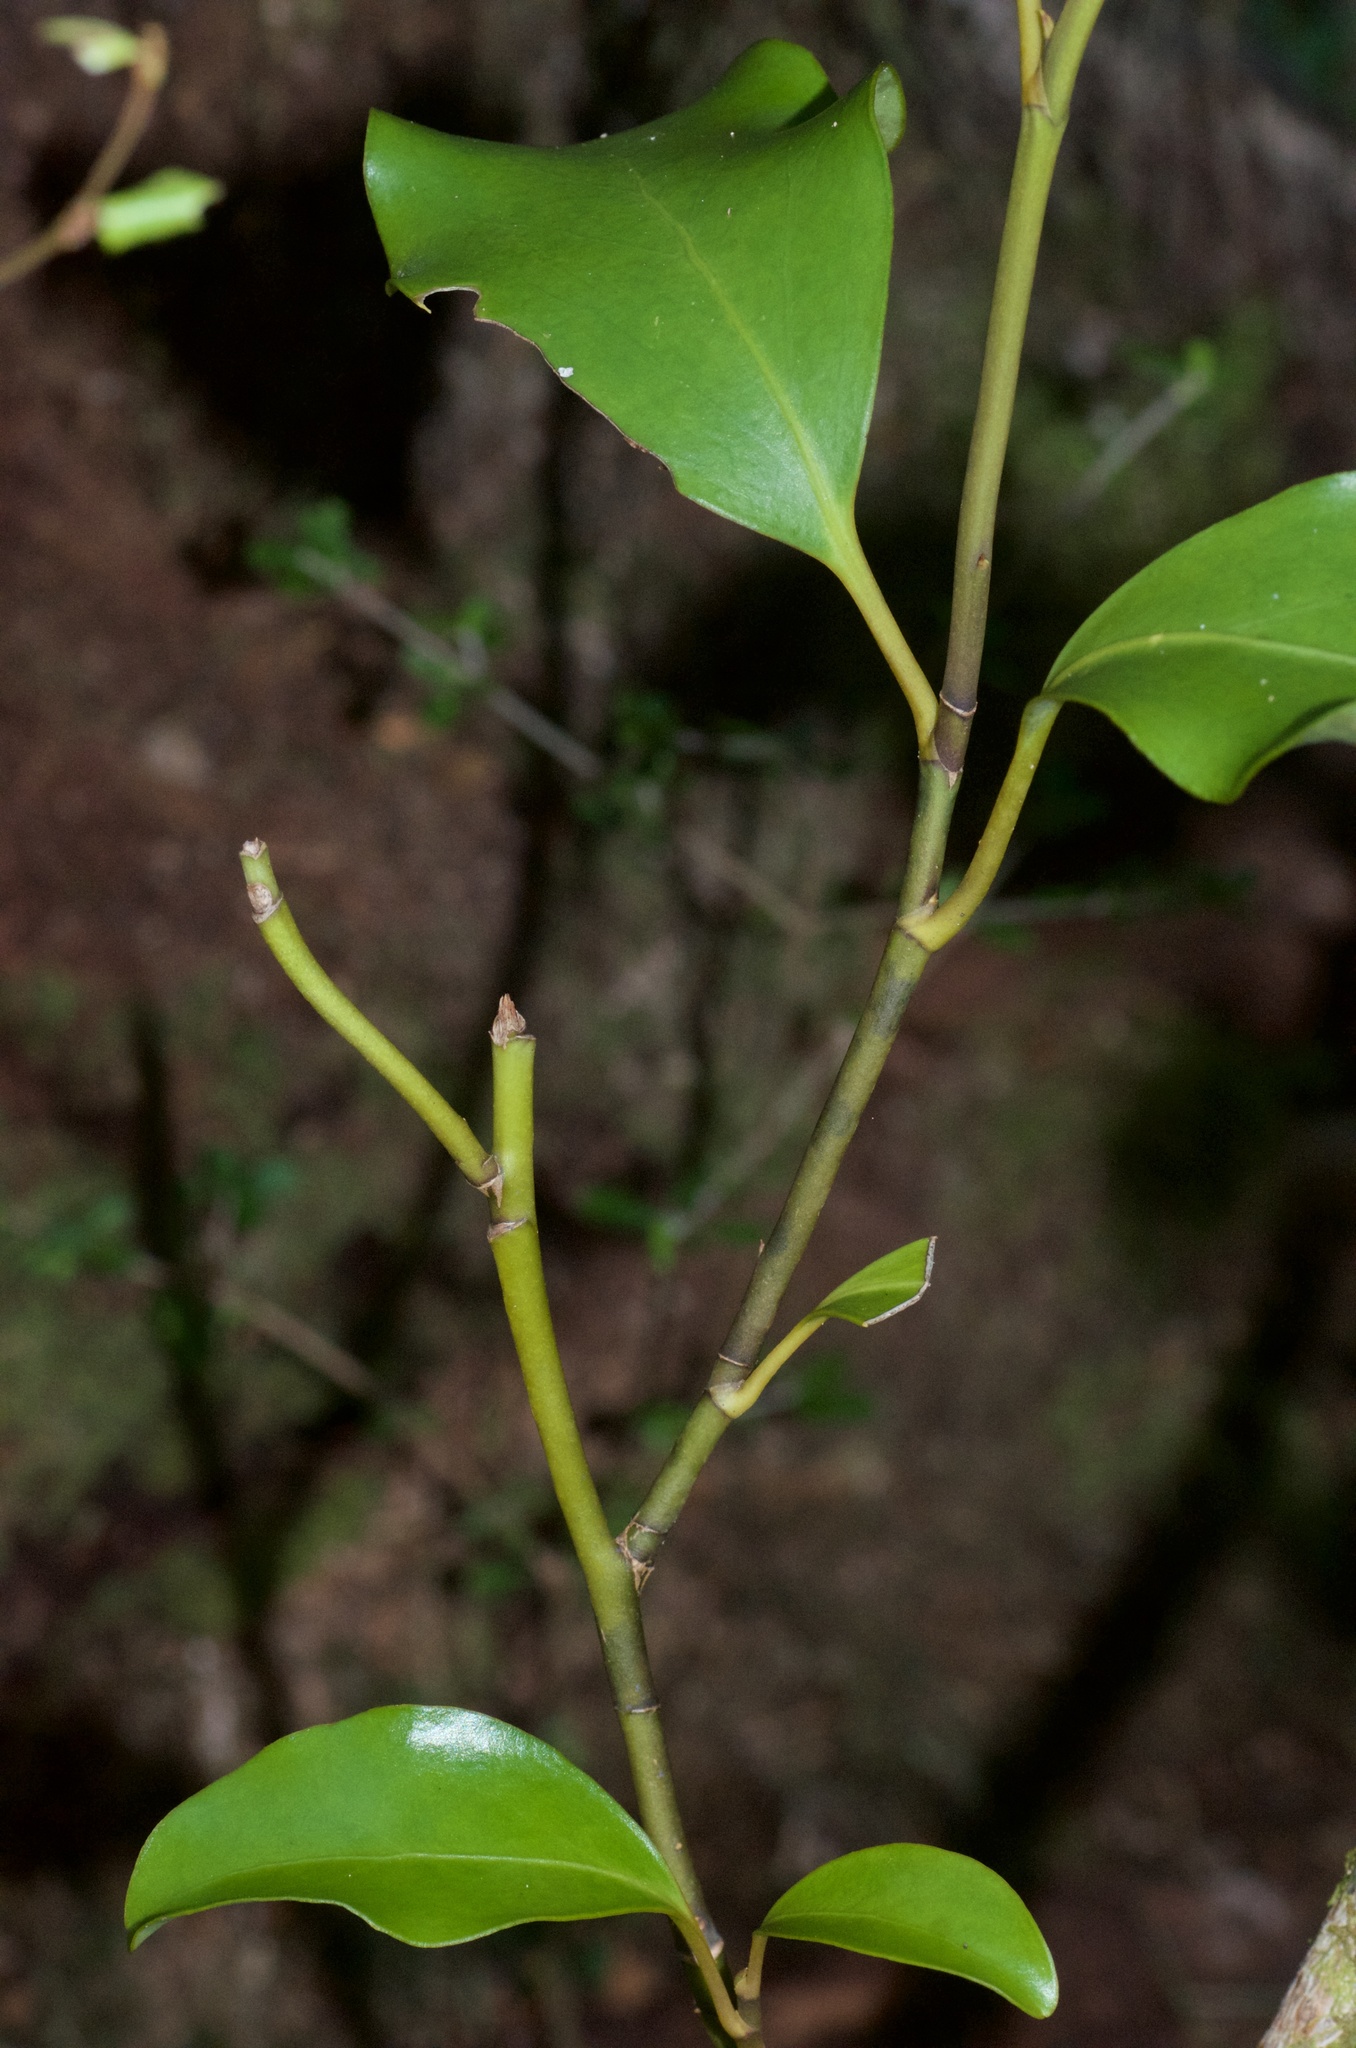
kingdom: Plantae
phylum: Tracheophyta
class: Magnoliopsida
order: Apiales
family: Griseliniaceae
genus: Griselinia
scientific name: Griselinia littoralis
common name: New zealand broadleaf
